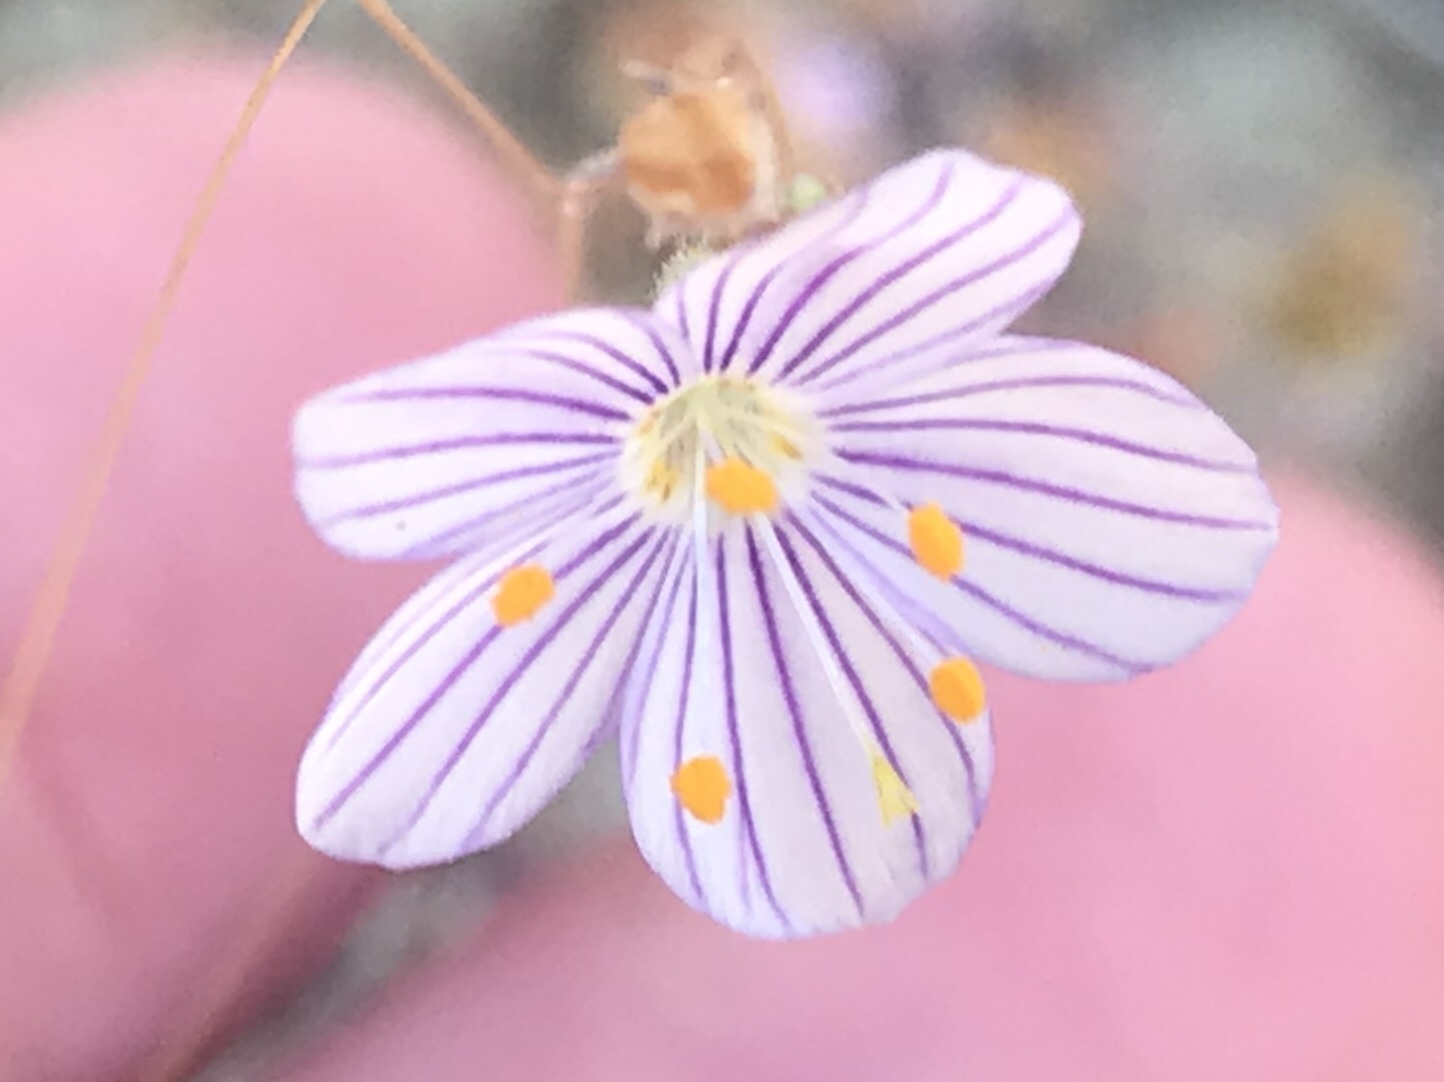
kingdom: Plantae
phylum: Tracheophyta
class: Magnoliopsida
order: Ericales
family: Polemoniaceae
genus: Leptosiphon
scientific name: Leptosiphon liniflorus
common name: Narrowflower flaxflower
